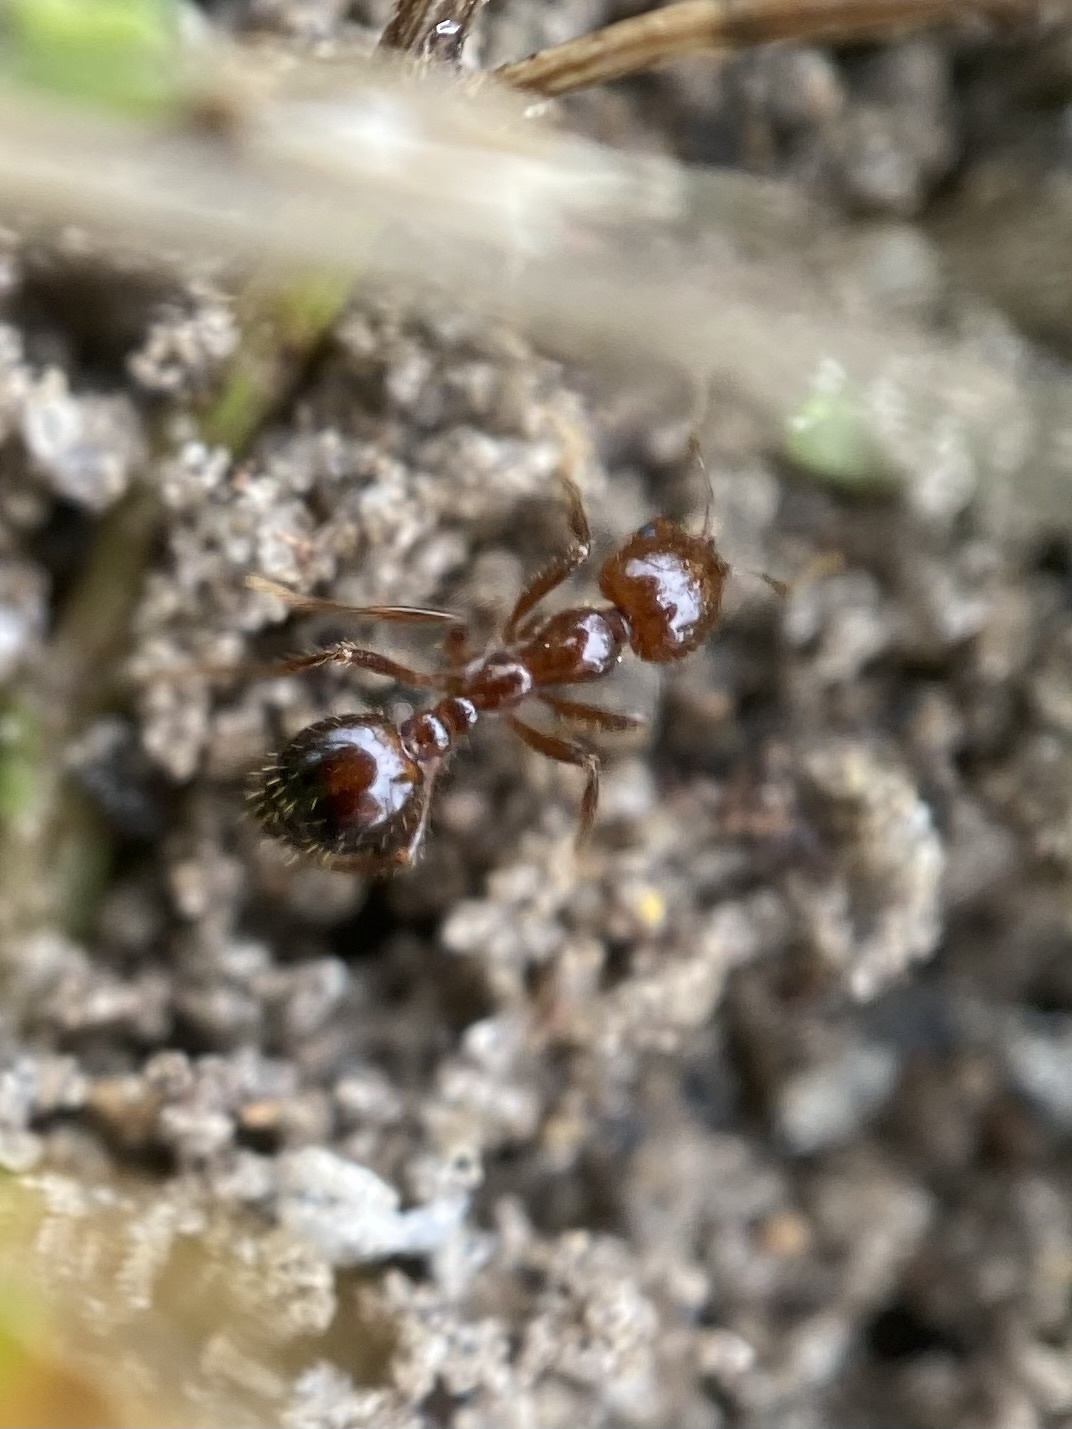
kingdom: Animalia
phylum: Arthropoda
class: Insecta
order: Hymenoptera
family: Formicidae
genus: Solenopsis
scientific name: Solenopsis invicta
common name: Red imported fire ant
